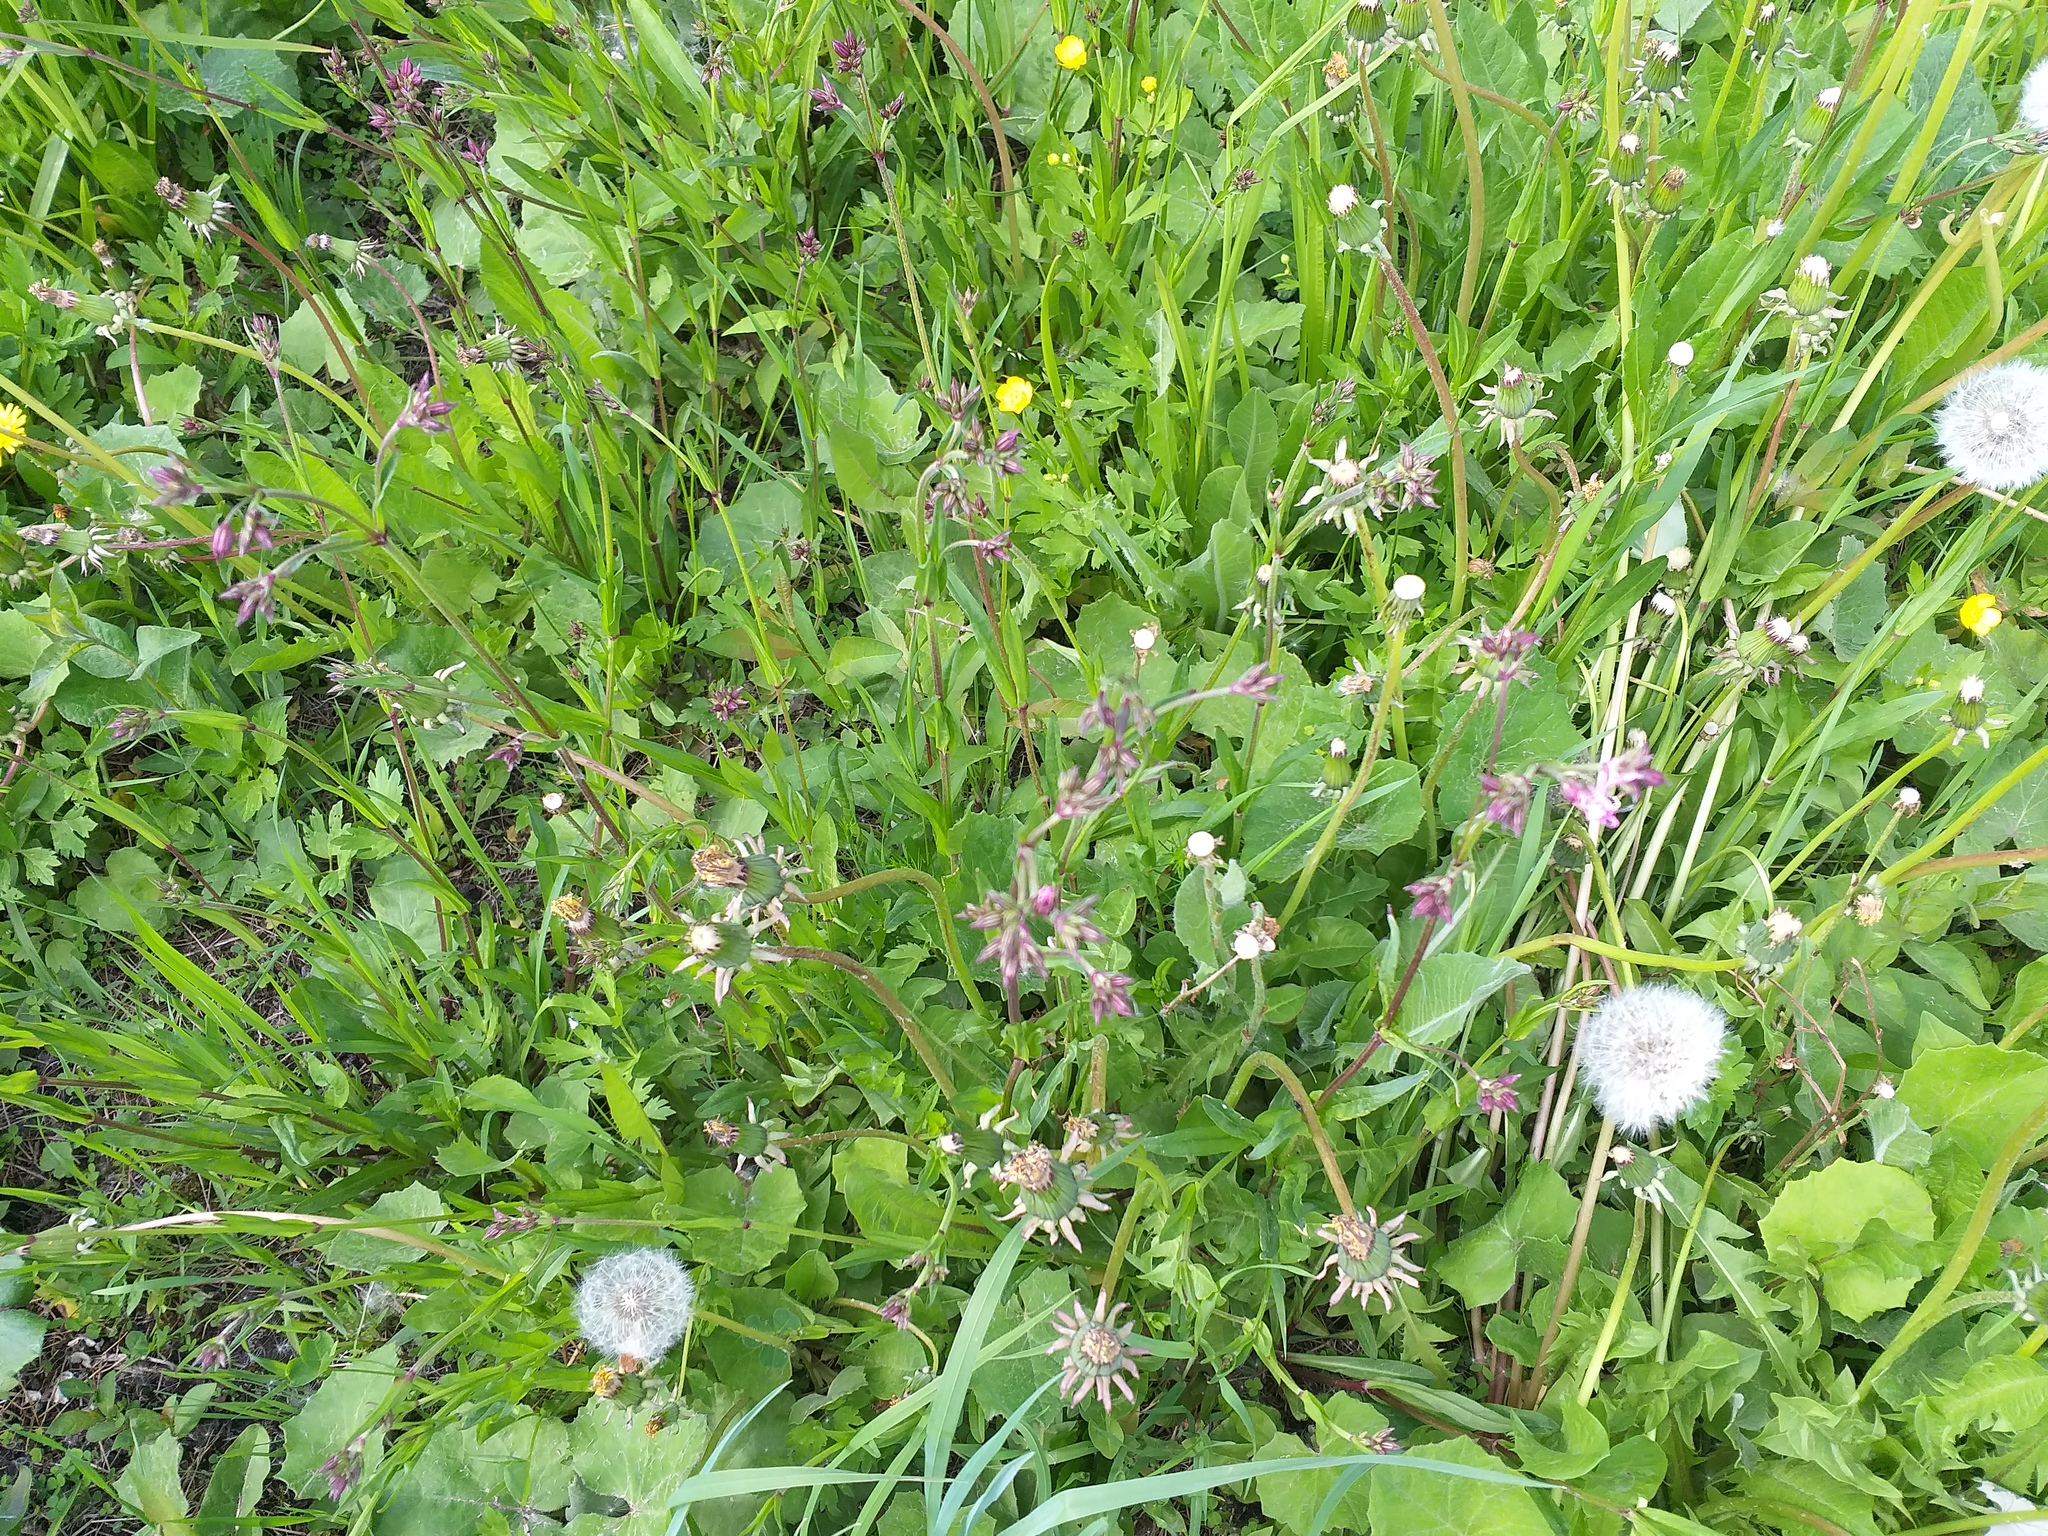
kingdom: Plantae
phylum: Tracheophyta
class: Magnoliopsida
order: Caryophyllales
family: Caryophyllaceae
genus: Silene
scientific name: Silene flos-cuculi
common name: Ragged-robin
